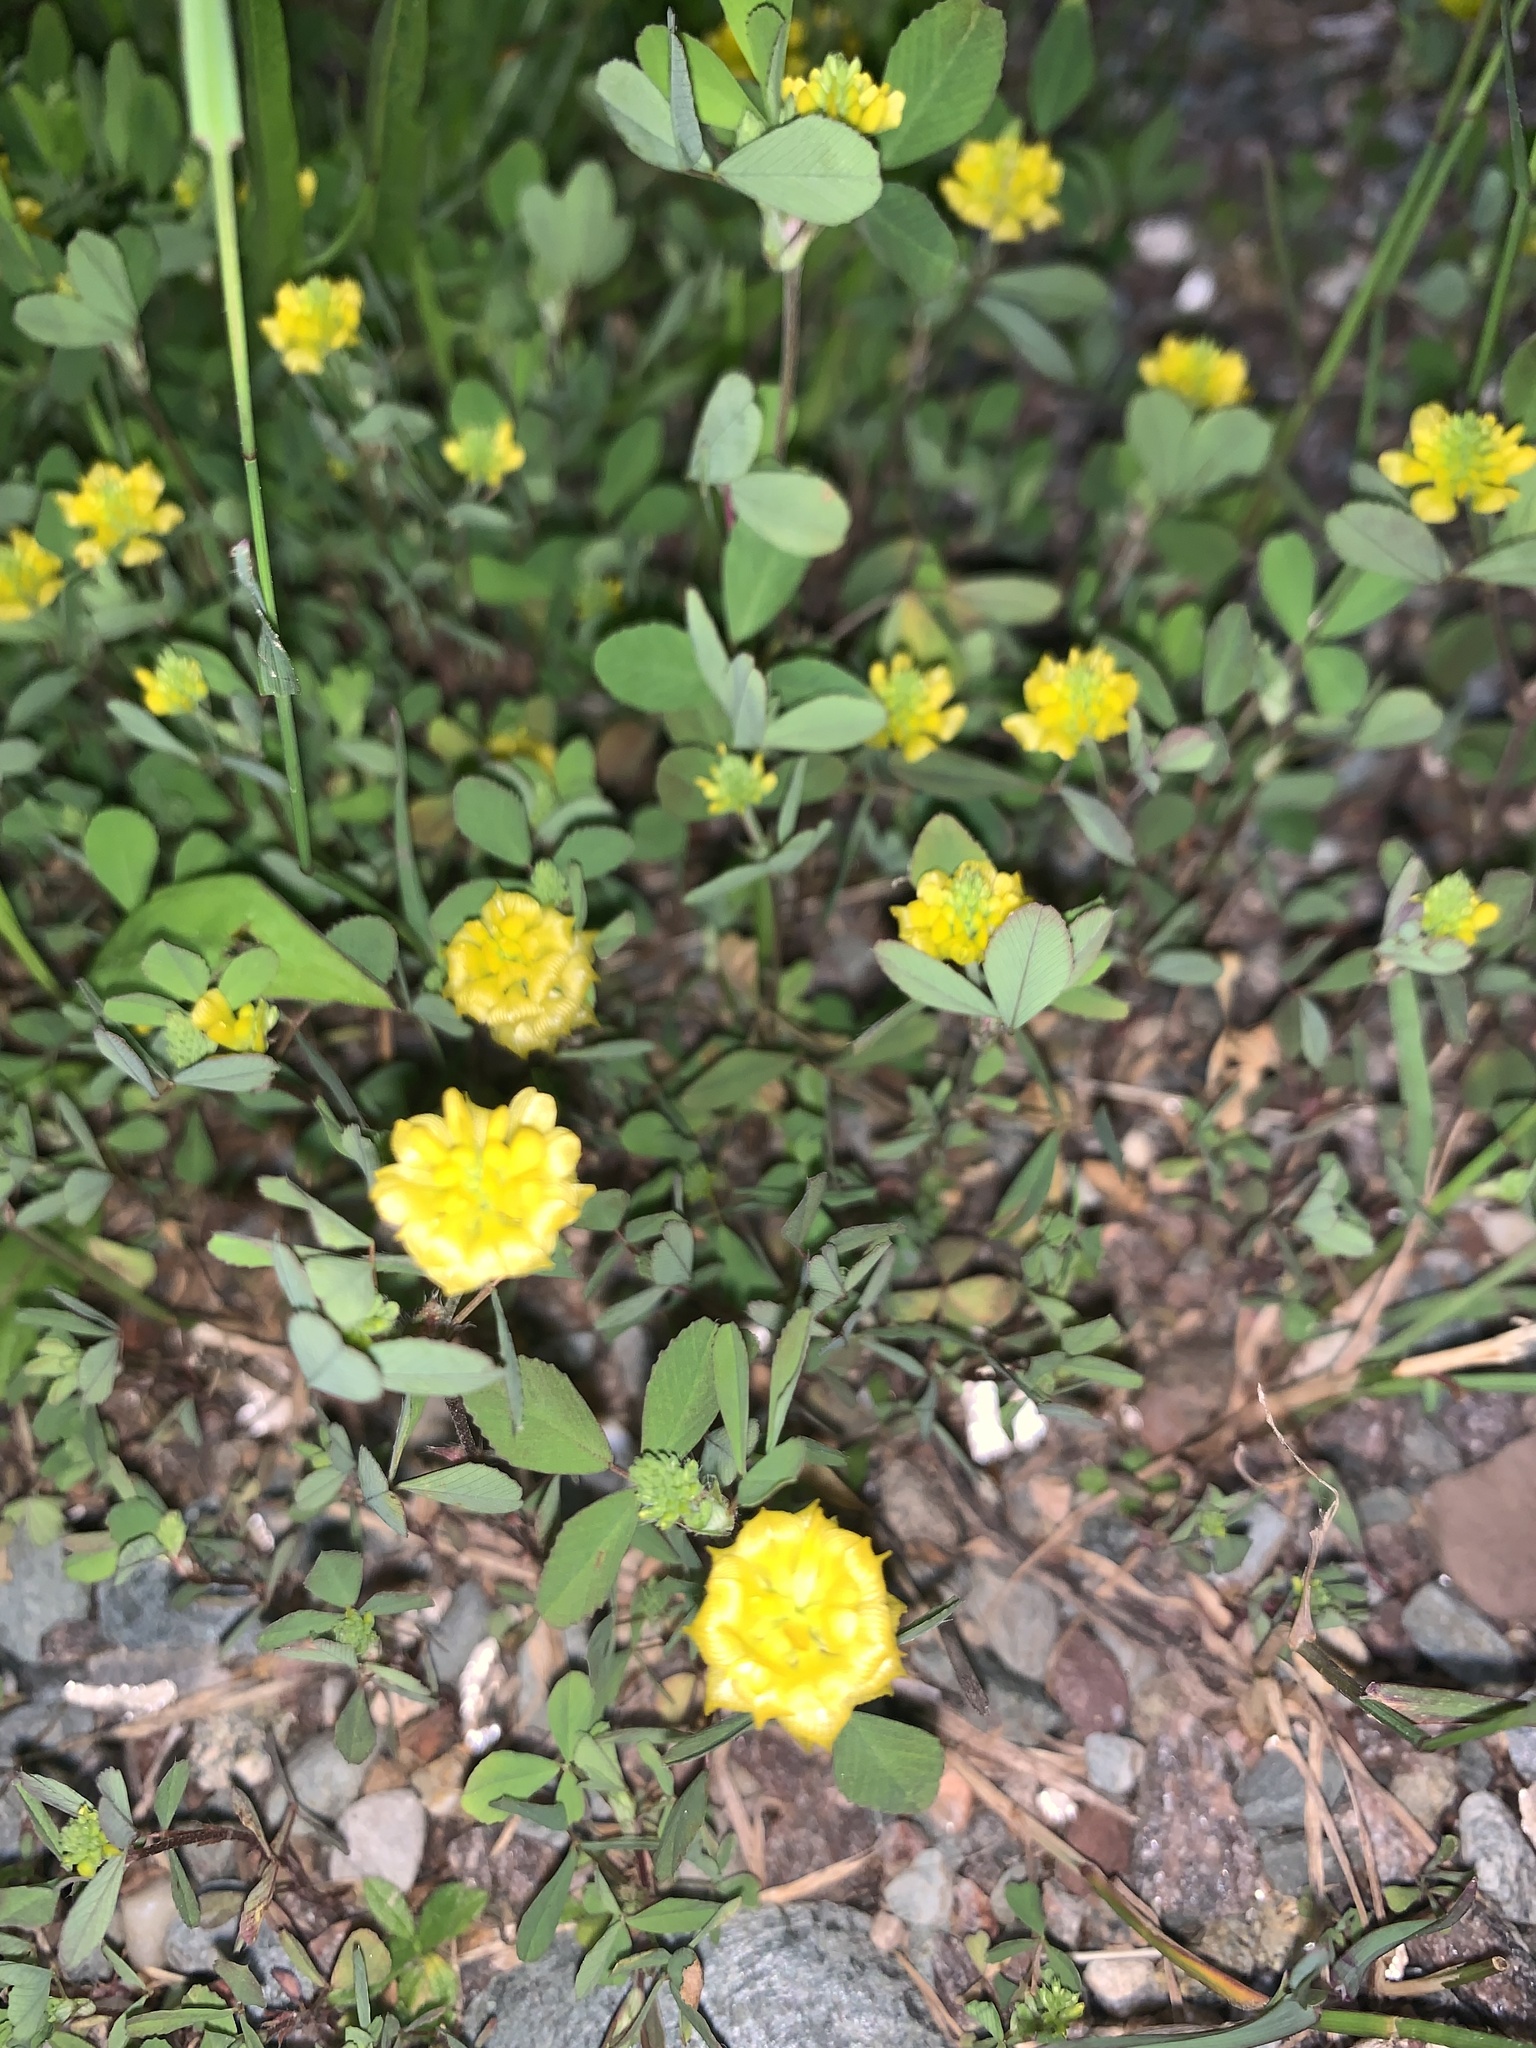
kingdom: Plantae
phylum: Tracheophyta
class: Magnoliopsida
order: Fabales
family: Fabaceae
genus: Trifolium
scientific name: Trifolium campestre
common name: Field clover
